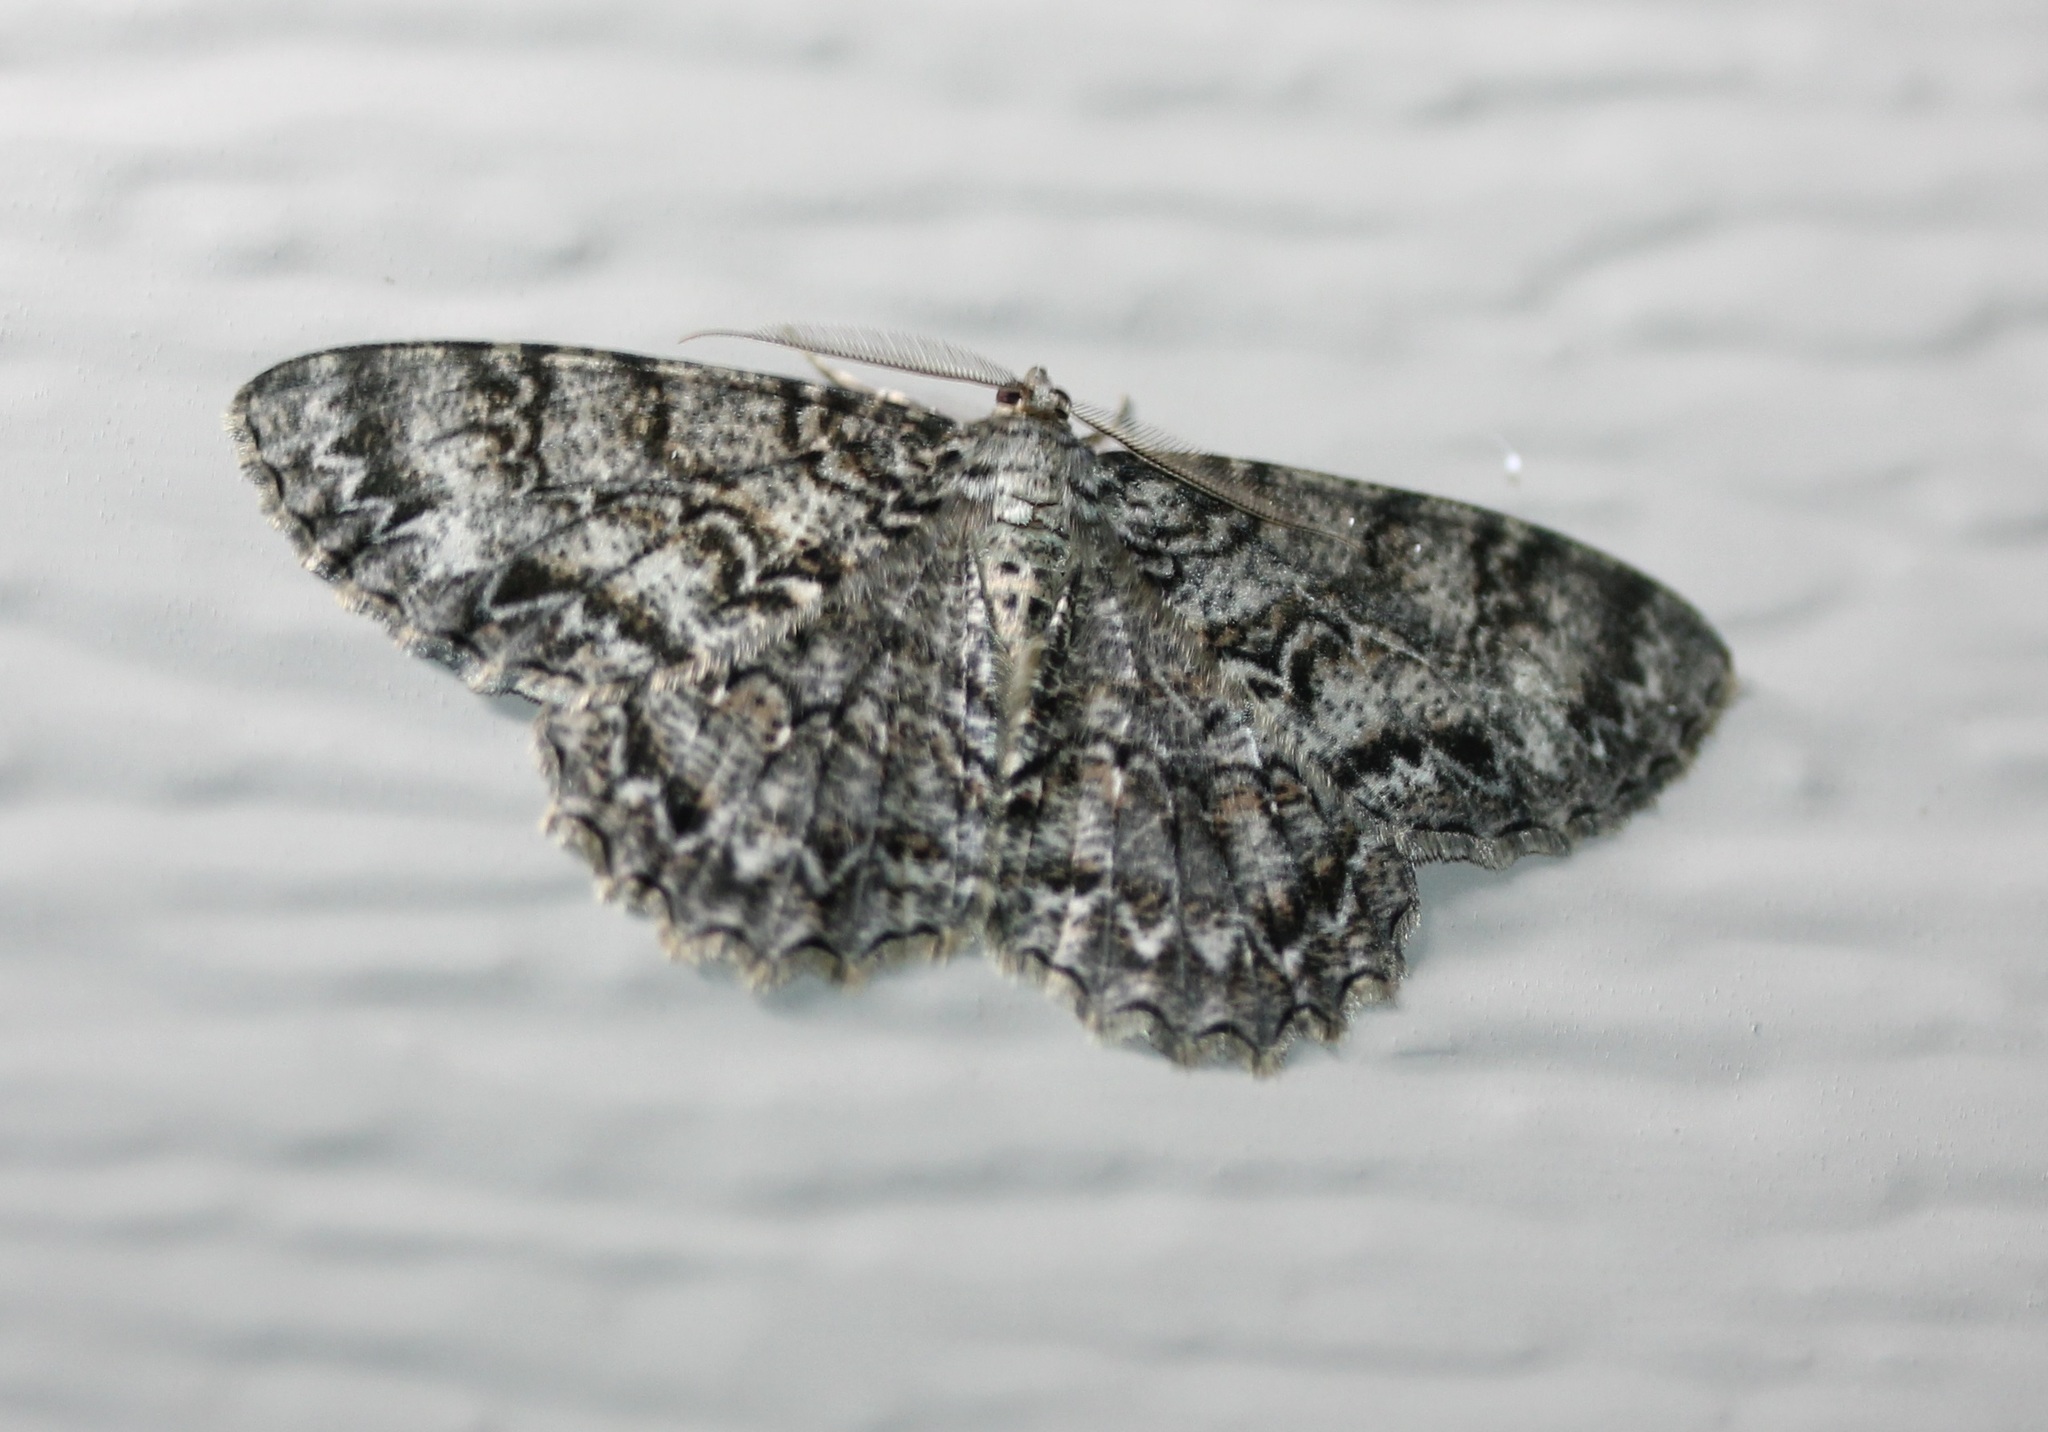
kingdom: Animalia
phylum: Arthropoda
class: Insecta
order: Lepidoptera
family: Geometridae
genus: Epimecis
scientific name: Epimecis hortaria
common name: Tulip-tree beauty
